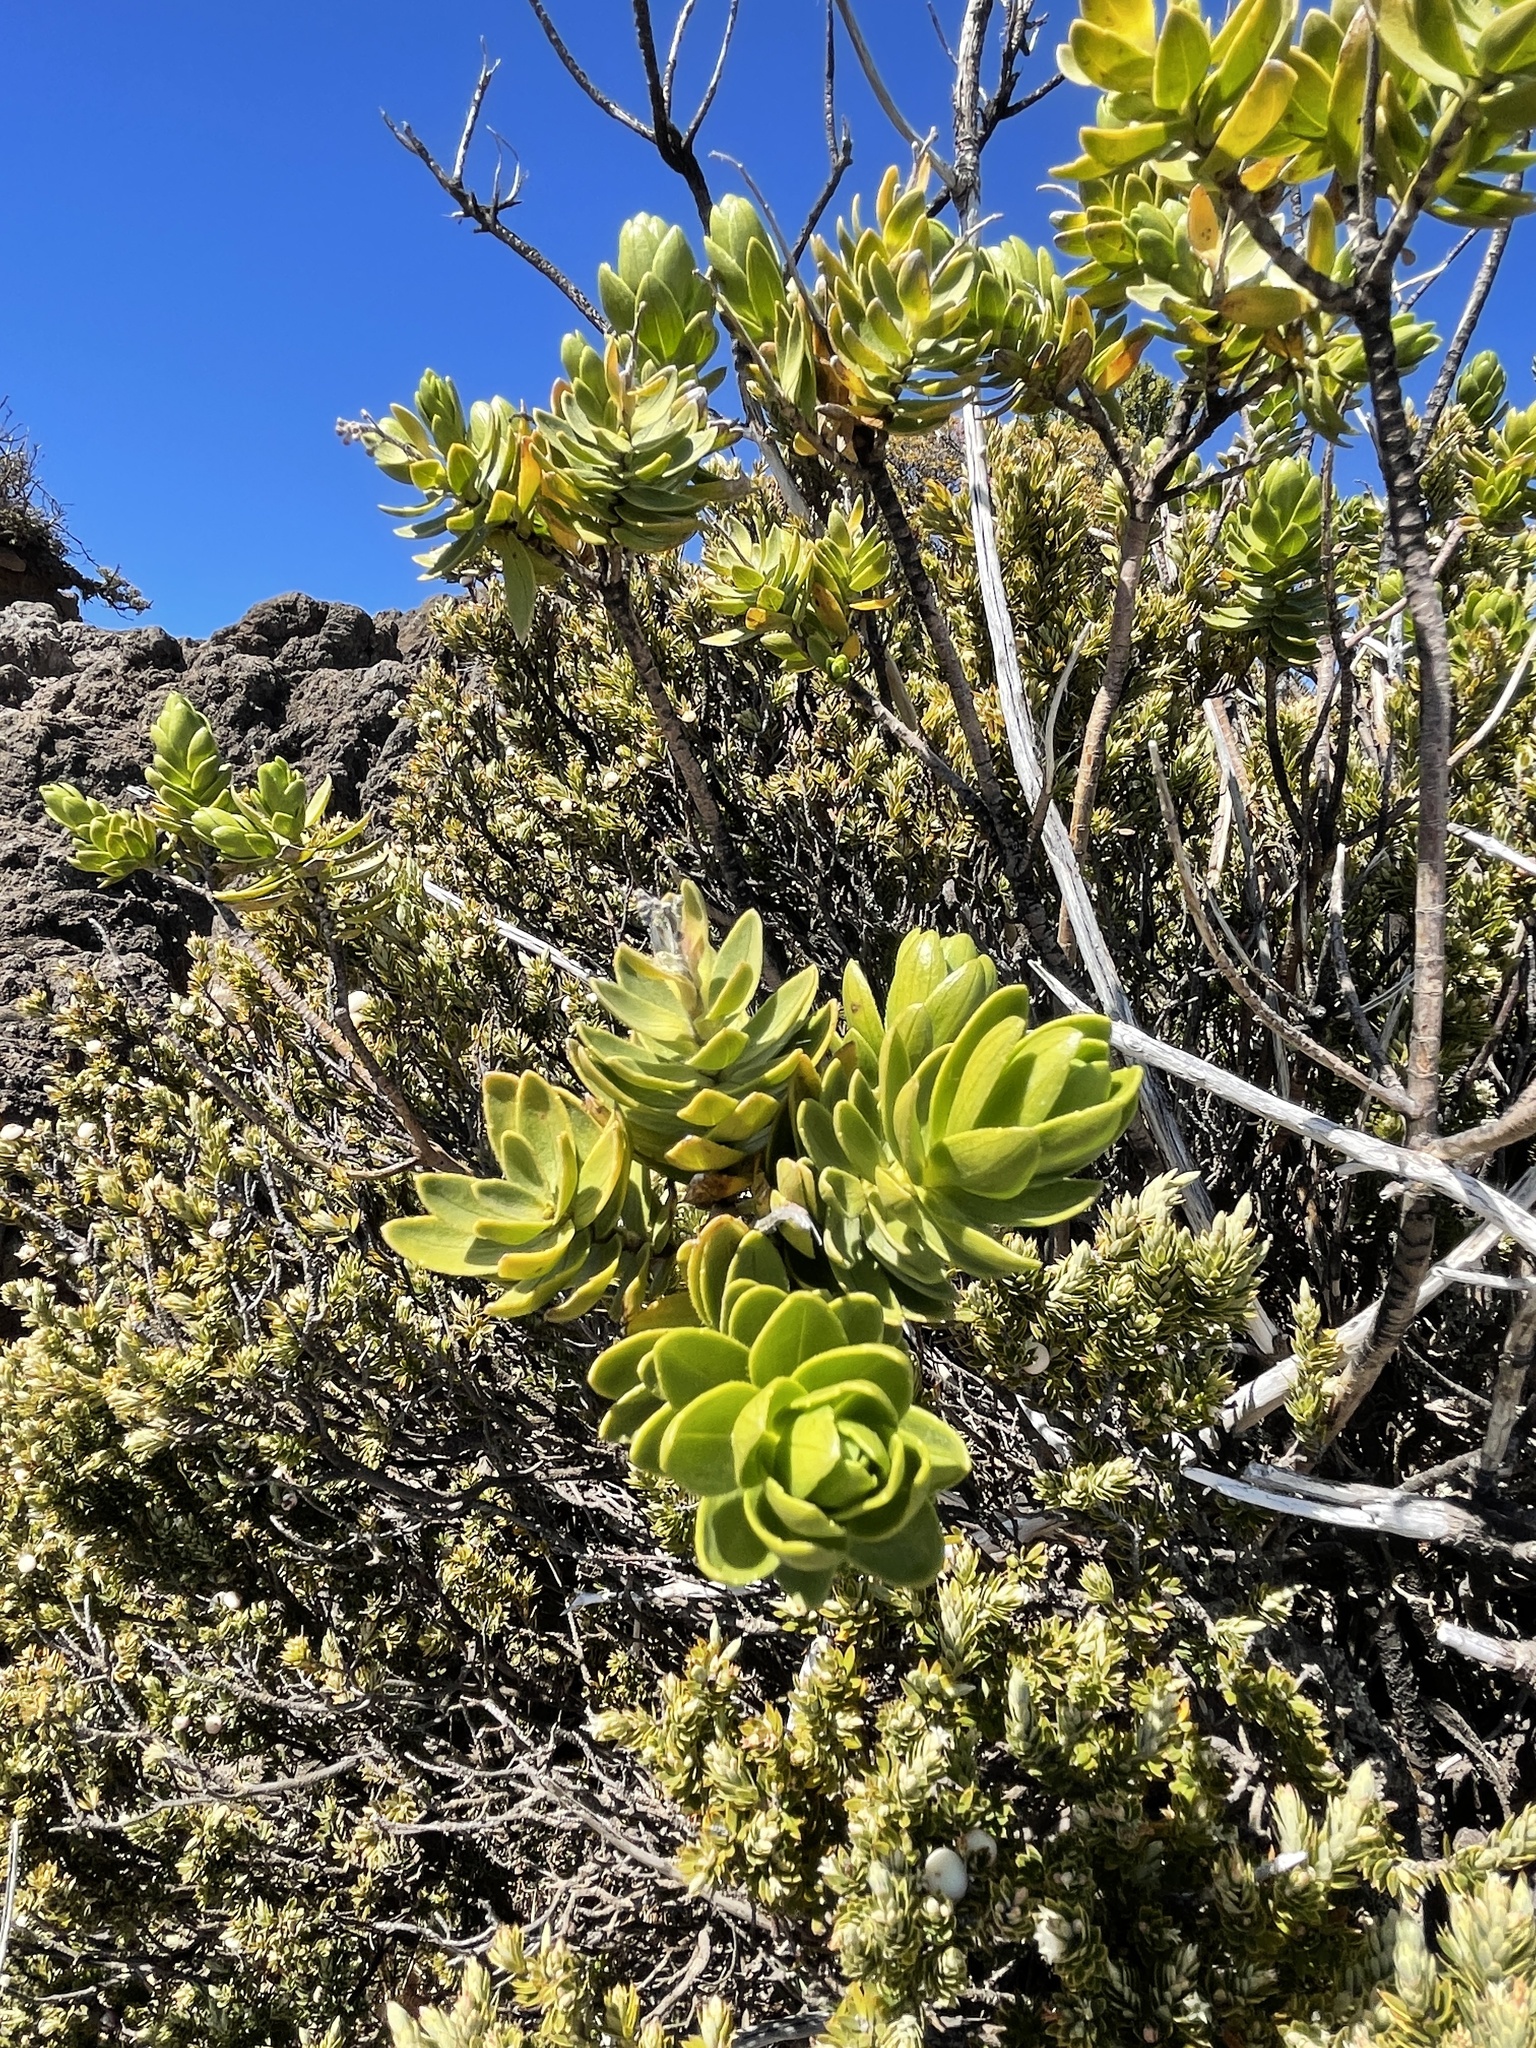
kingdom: Plantae
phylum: Tracheophyta
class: Magnoliopsida
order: Asterales
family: Asteraceae
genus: Dubautia
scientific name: Dubautia menziesii
